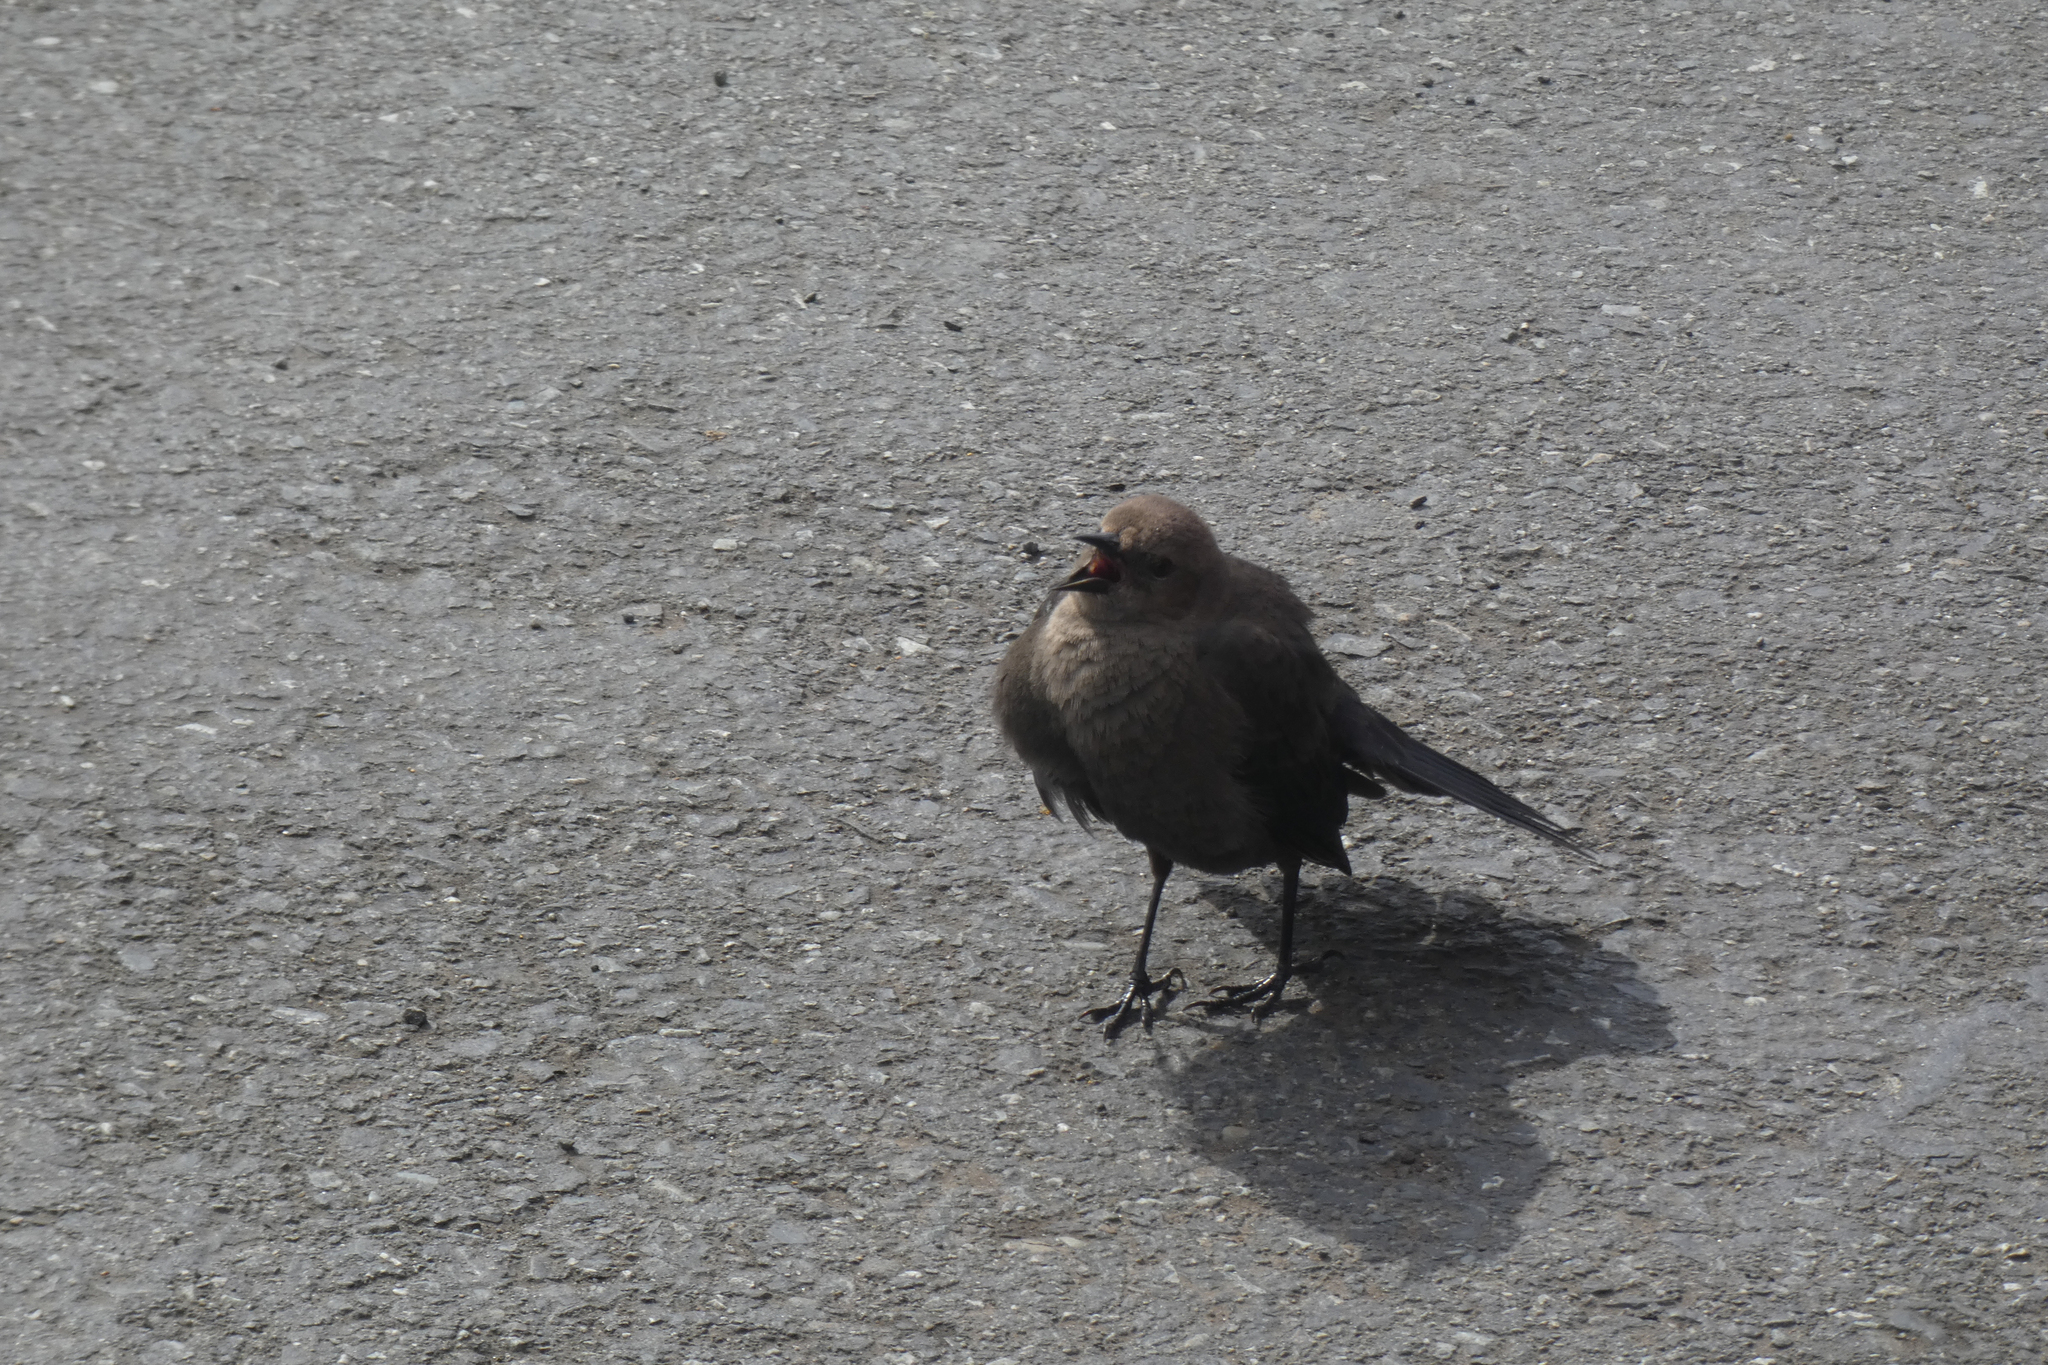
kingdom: Animalia
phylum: Chordata
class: Aves
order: Passeriformes
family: Icteridae
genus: Euphagus
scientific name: Euphagus cyanocephalus
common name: Brewer's blackbird
